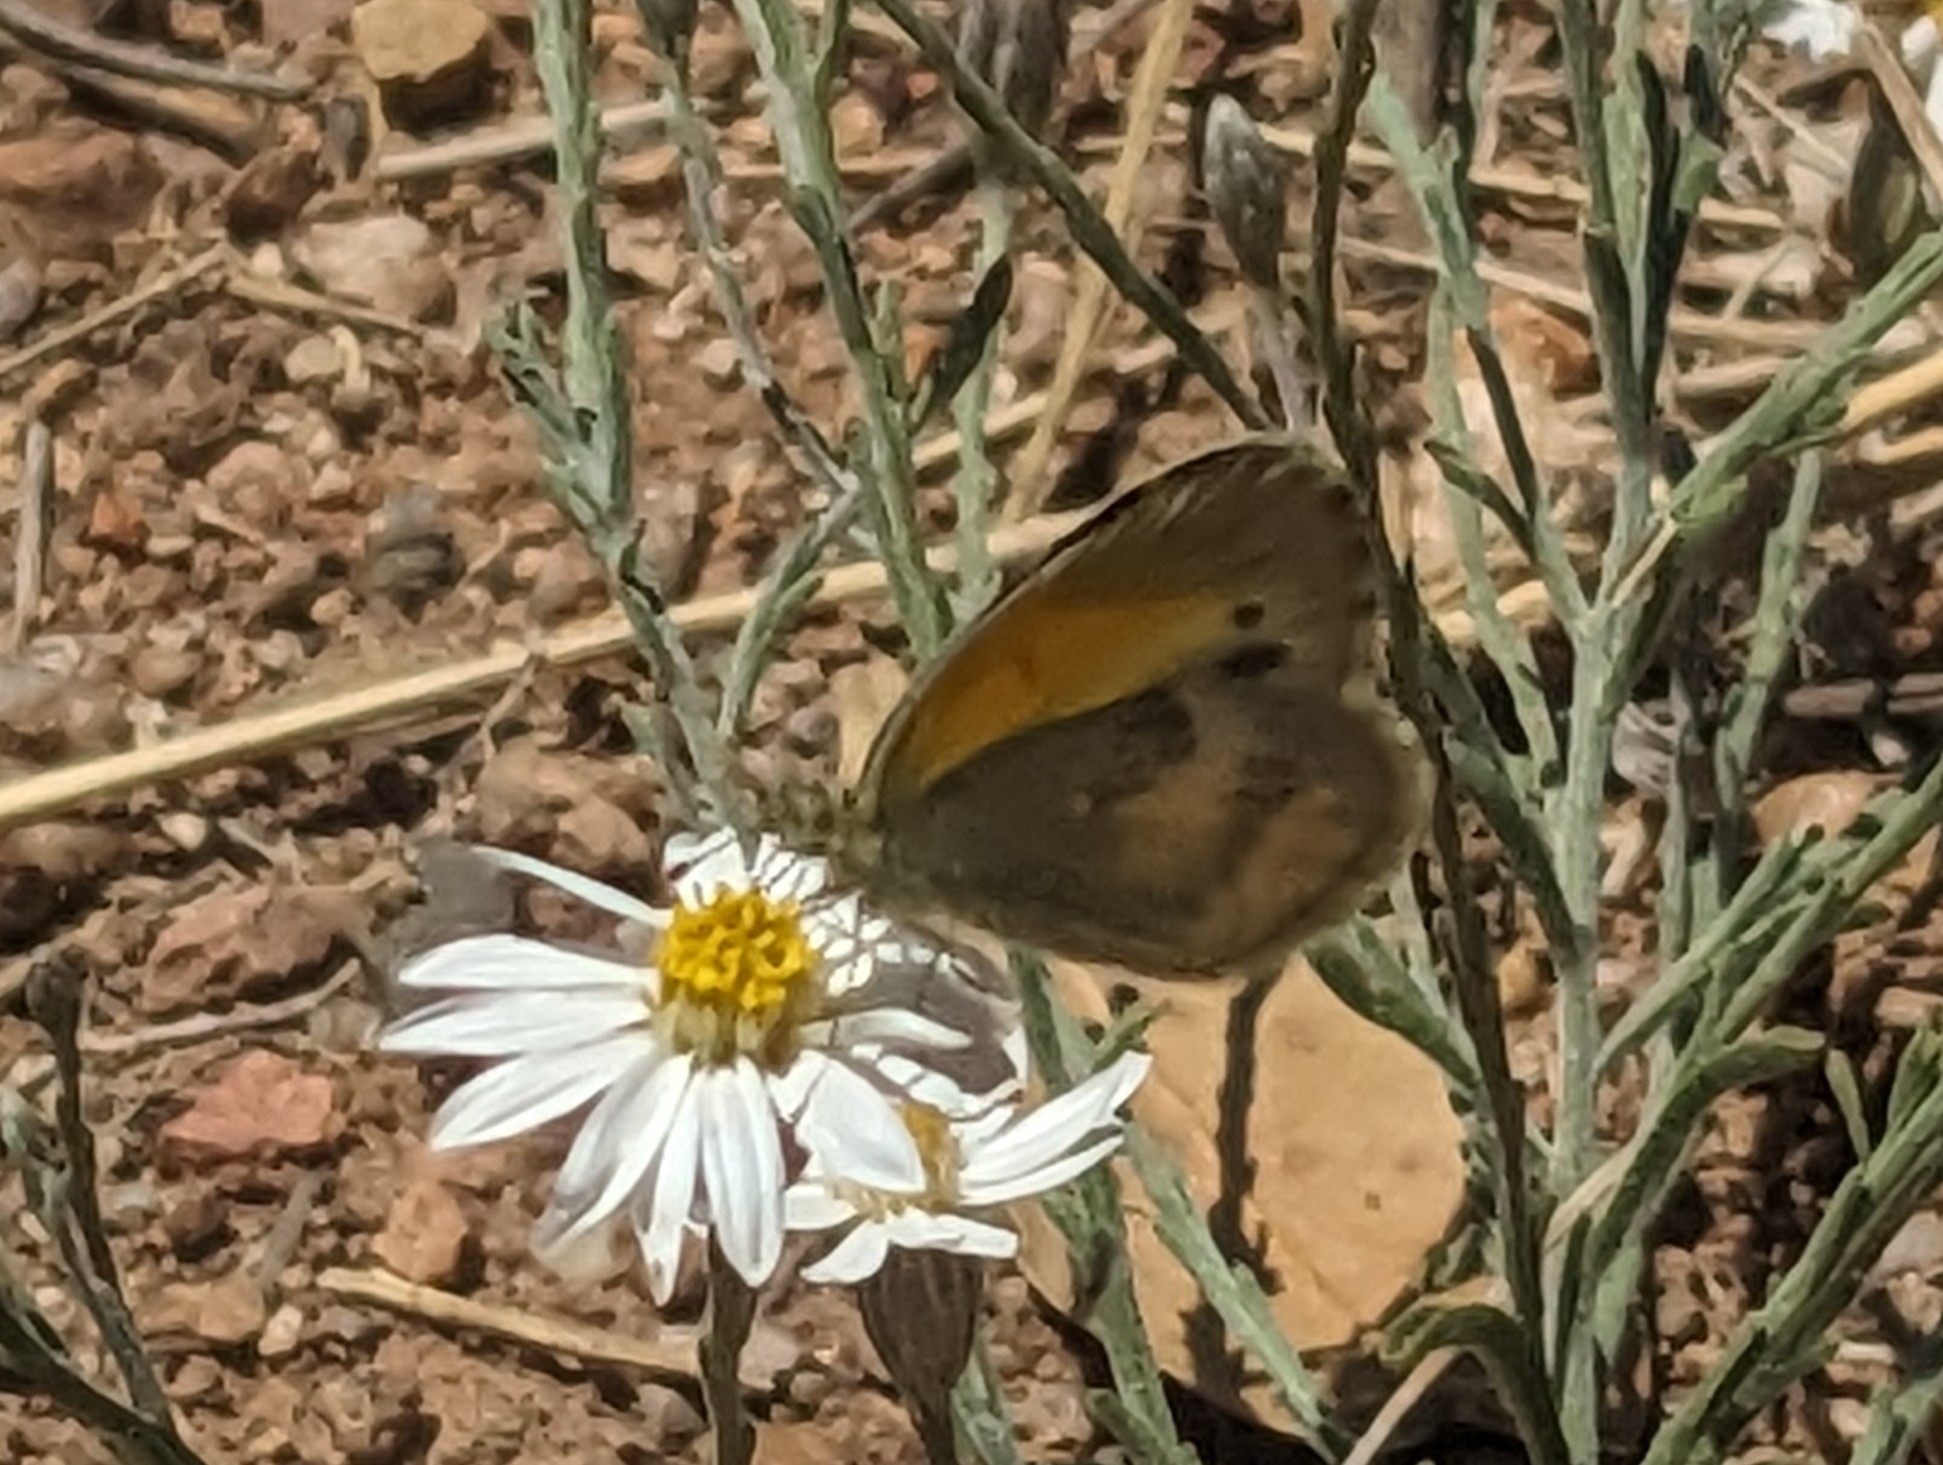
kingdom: Animalia
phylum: Arthropoda
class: Insecta
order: Lepidoptera
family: Pieridae
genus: Nathalis
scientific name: Nathalis iole
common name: Dainty sulphur
